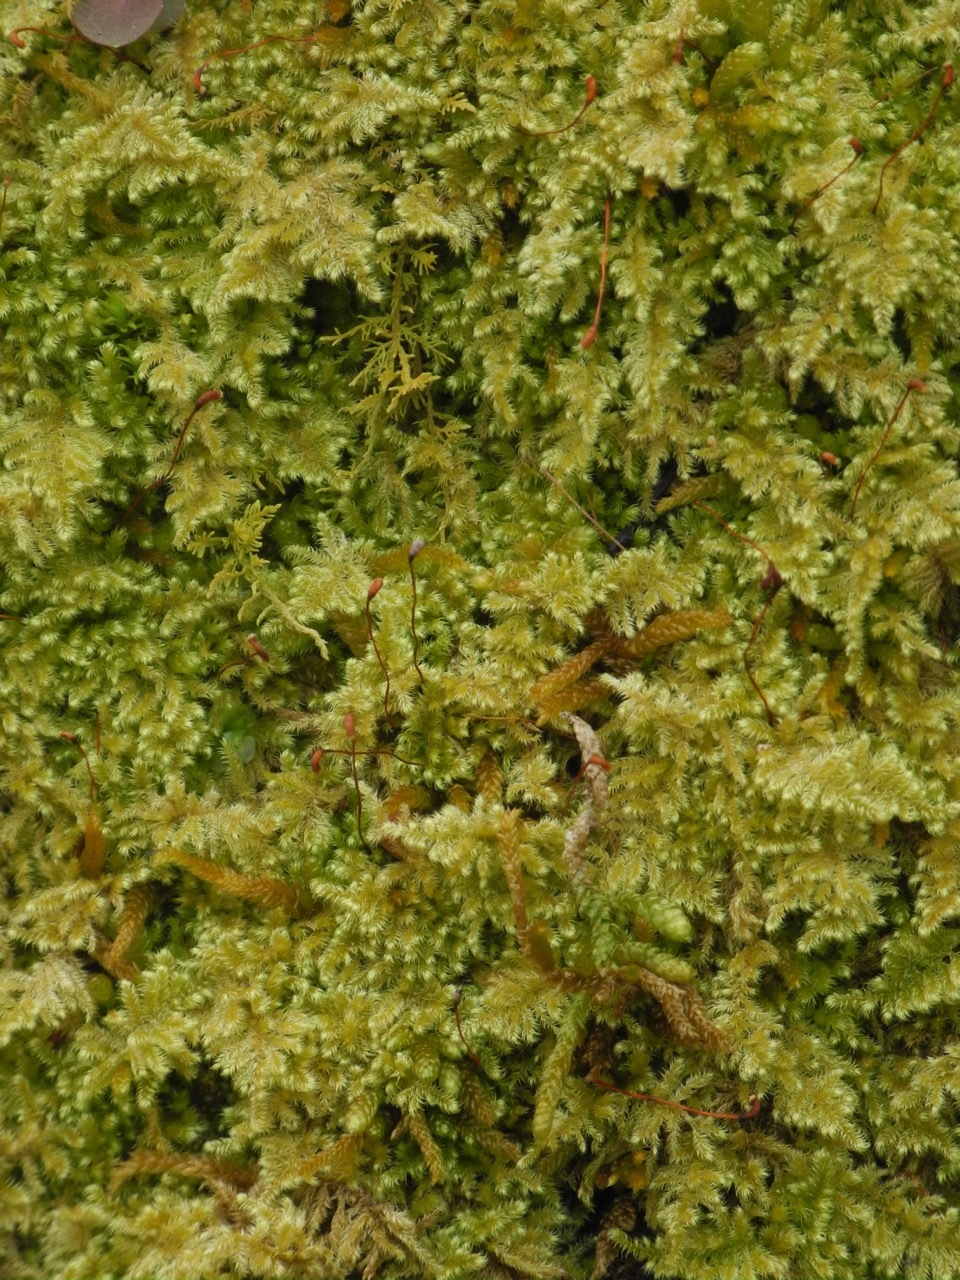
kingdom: Plantae
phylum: Bryophyta
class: Bryopsida
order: Hypnales
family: Callicladiaceae
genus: Callicladium
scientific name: Callicladium imponens
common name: Brocade moss
